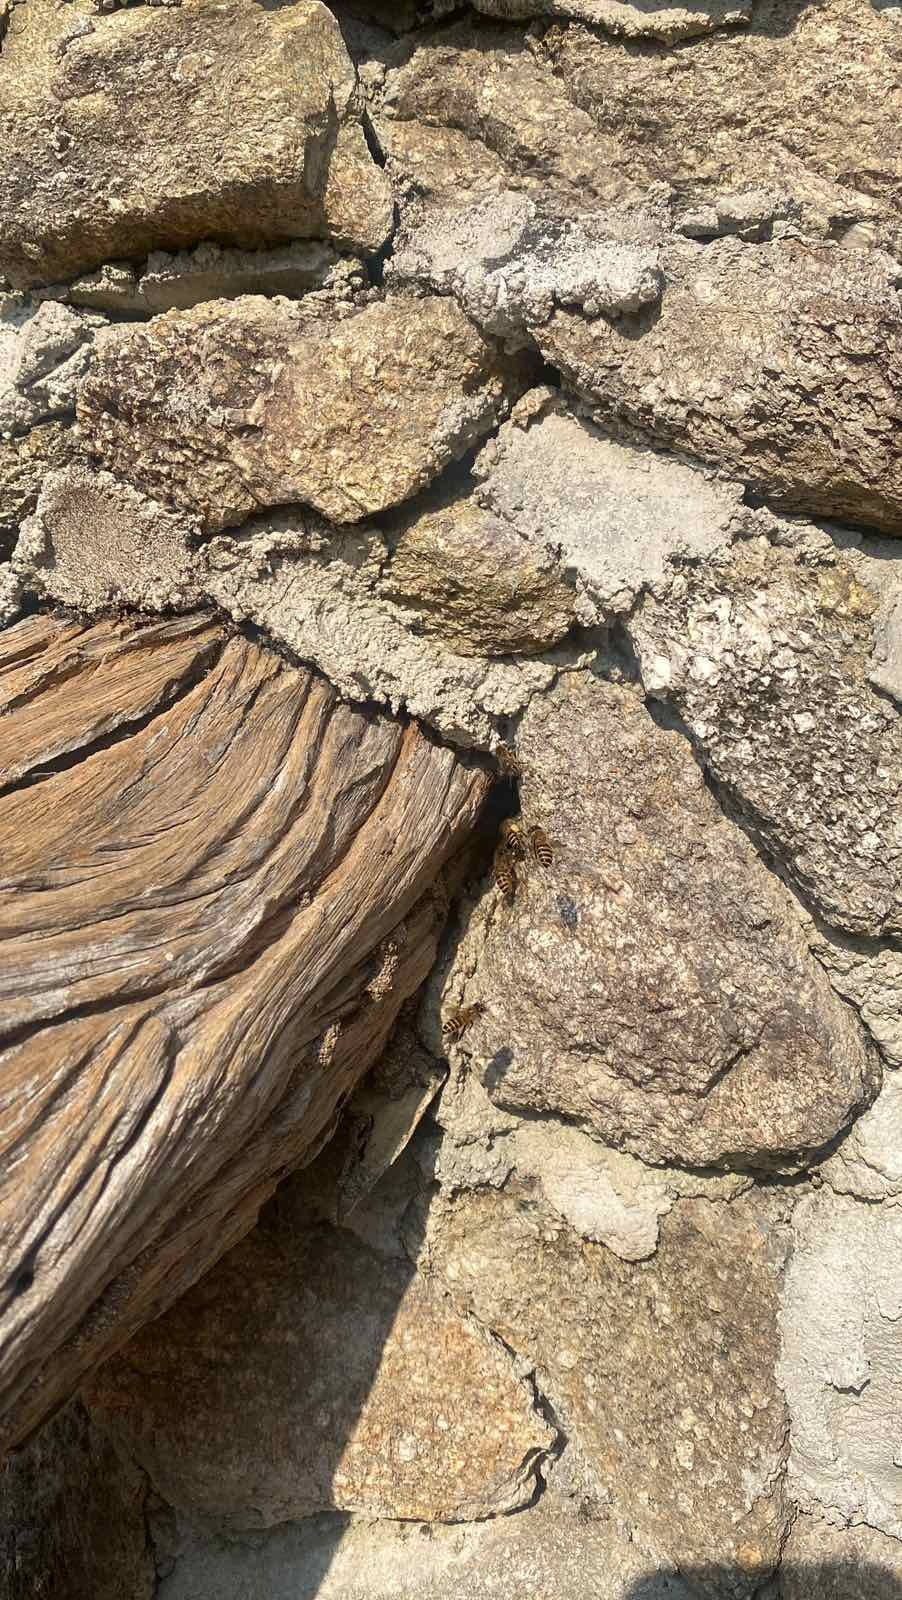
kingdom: Animalia
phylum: Arthropoda
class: Insecta
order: Hymenoptera
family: Apidae
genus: Apis
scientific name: Apis cerana
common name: Honey bee
